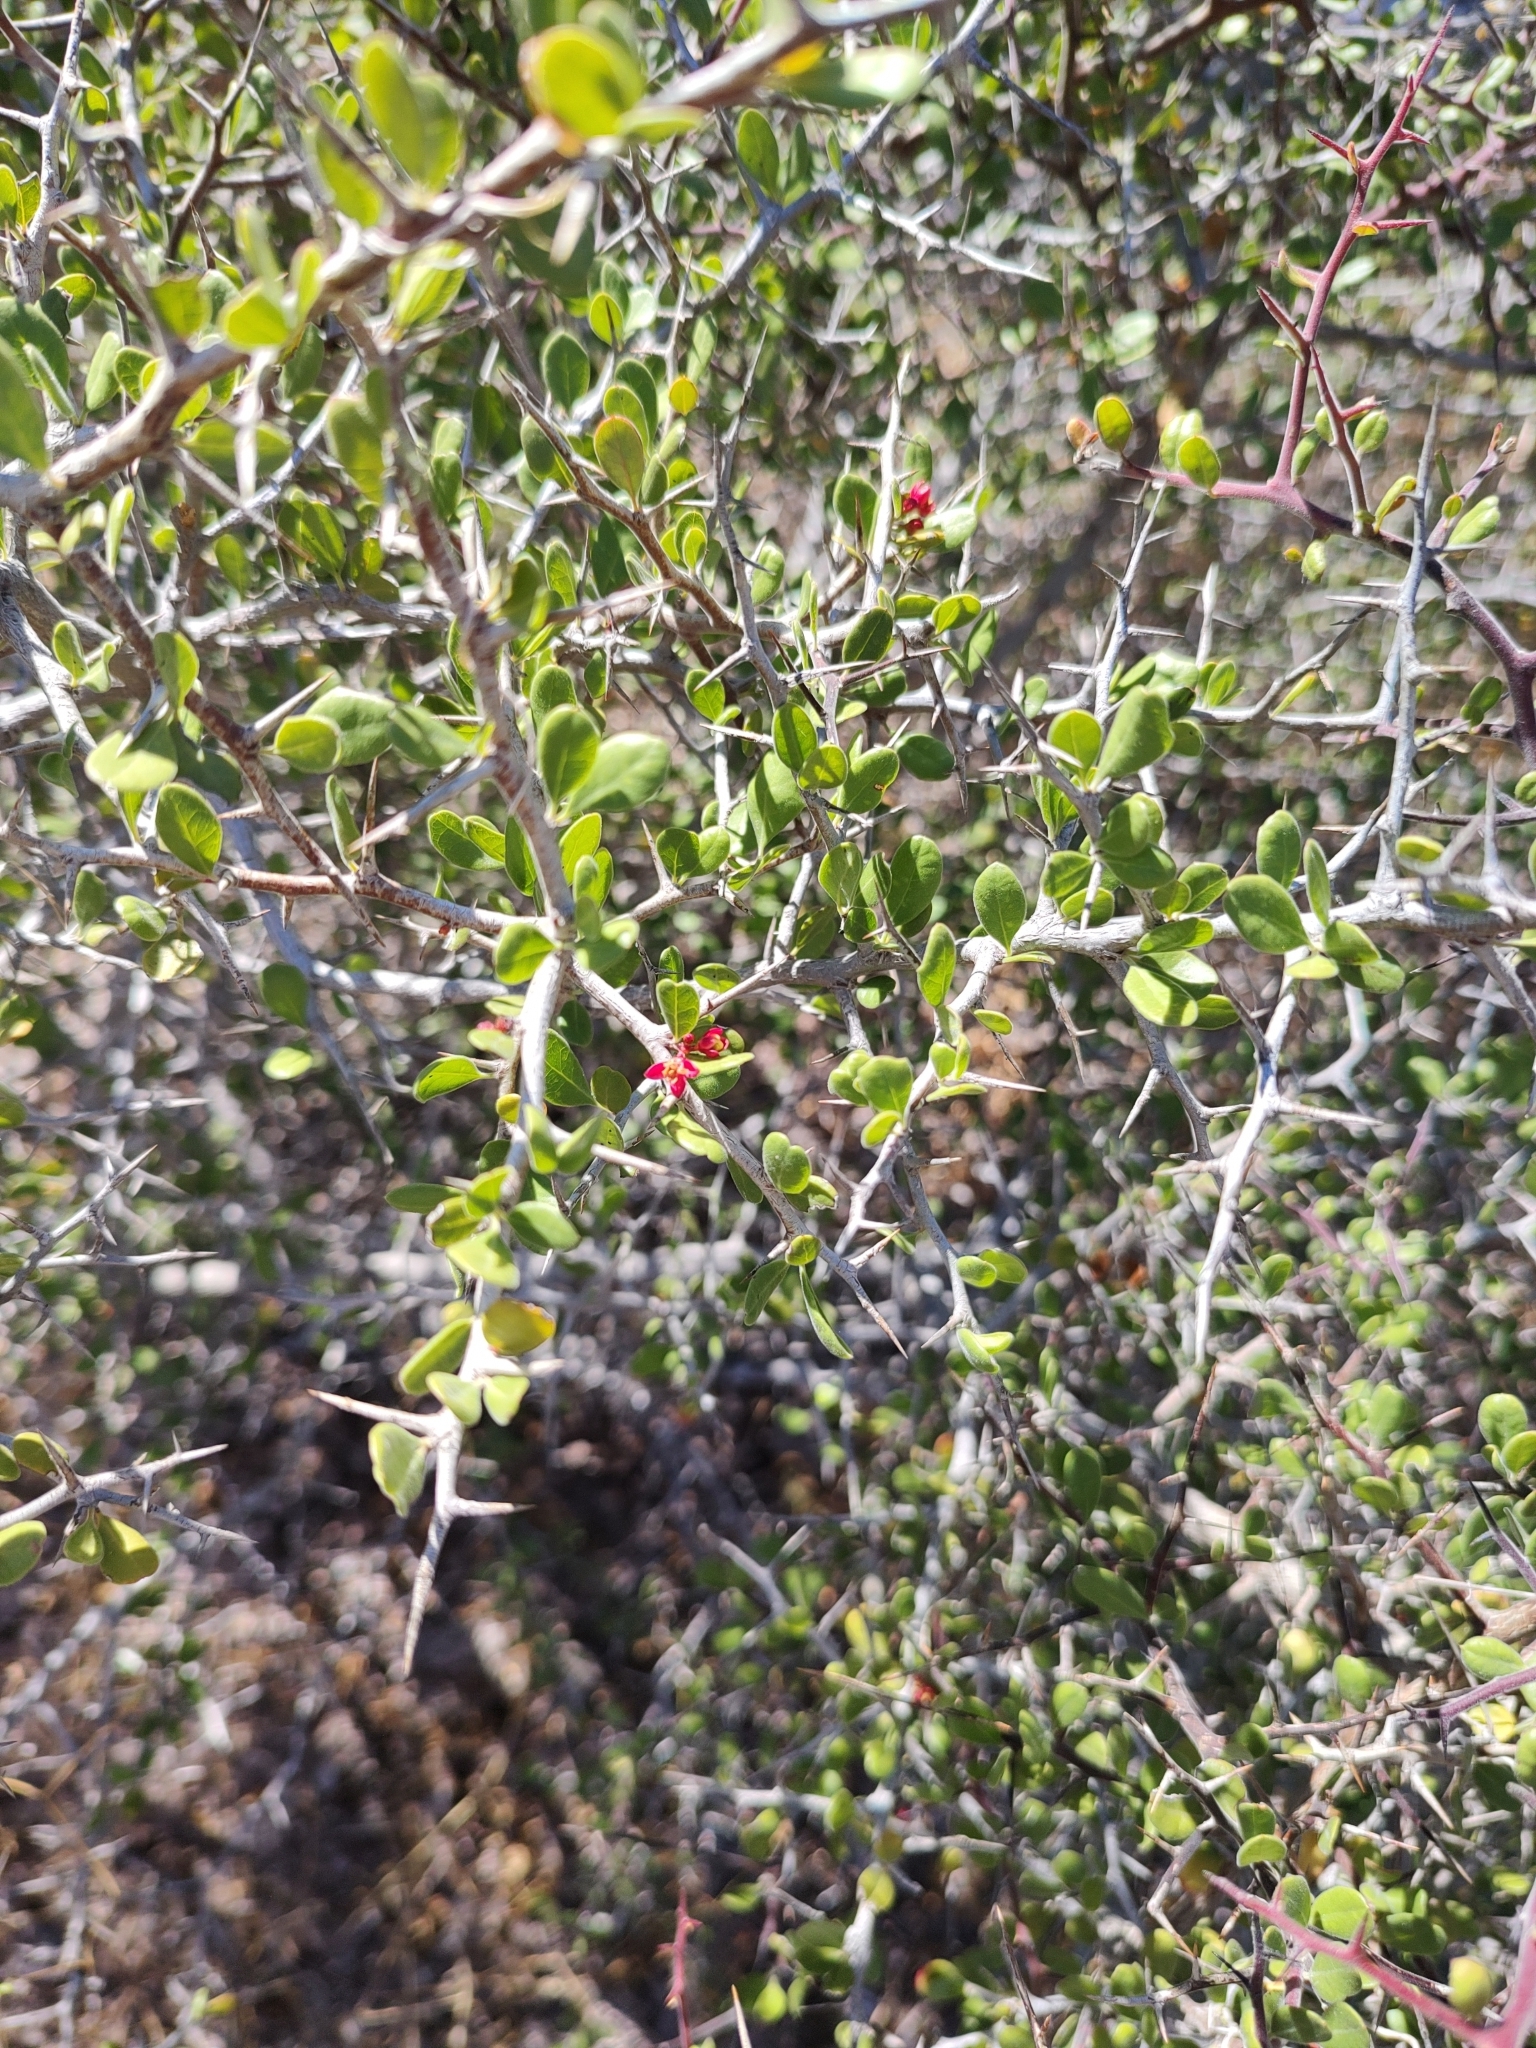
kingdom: Plantae
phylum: Tracheophyta
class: Magnoliopsida
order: Sapindales
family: Simaroubaceae
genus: Castela
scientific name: Castela peninsularis
